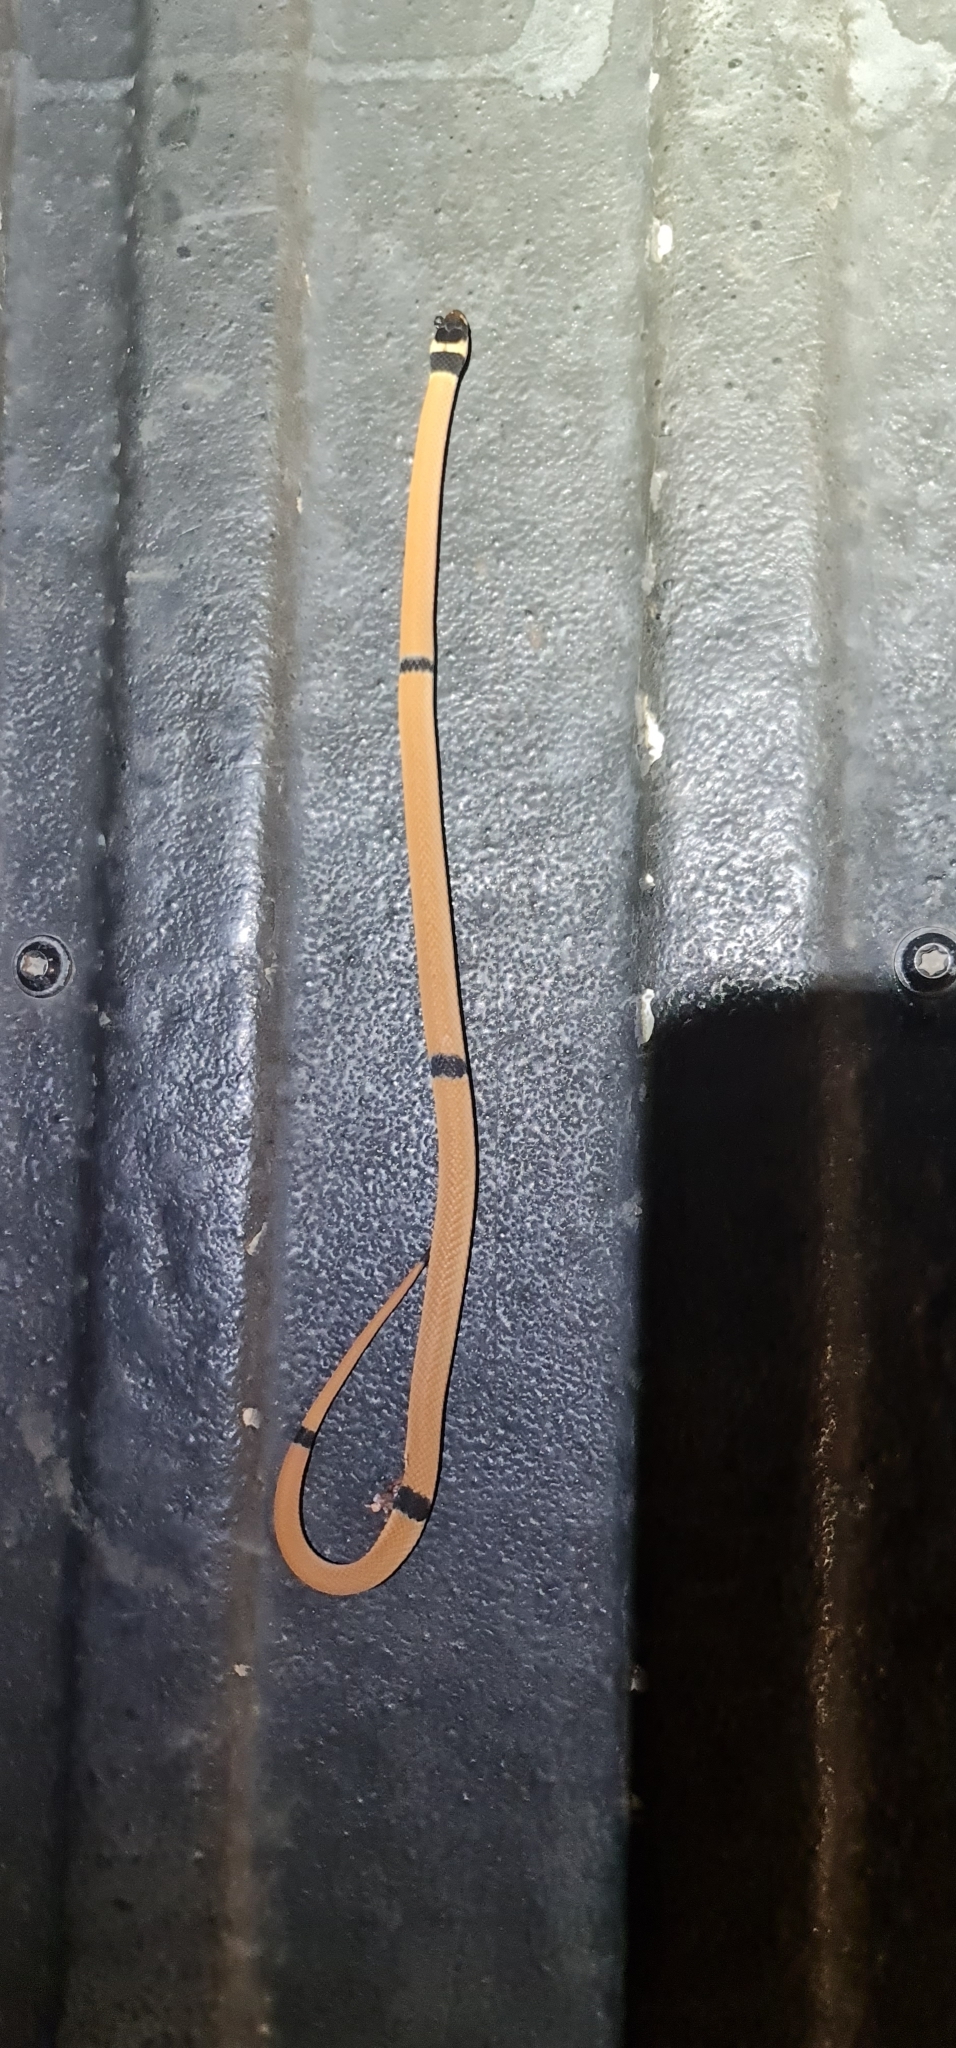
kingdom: Animalia
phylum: Chordata
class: Squamata
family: Elapidae
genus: Pseudonaja
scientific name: Pseudonaja modesta
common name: Ringed brown snake
